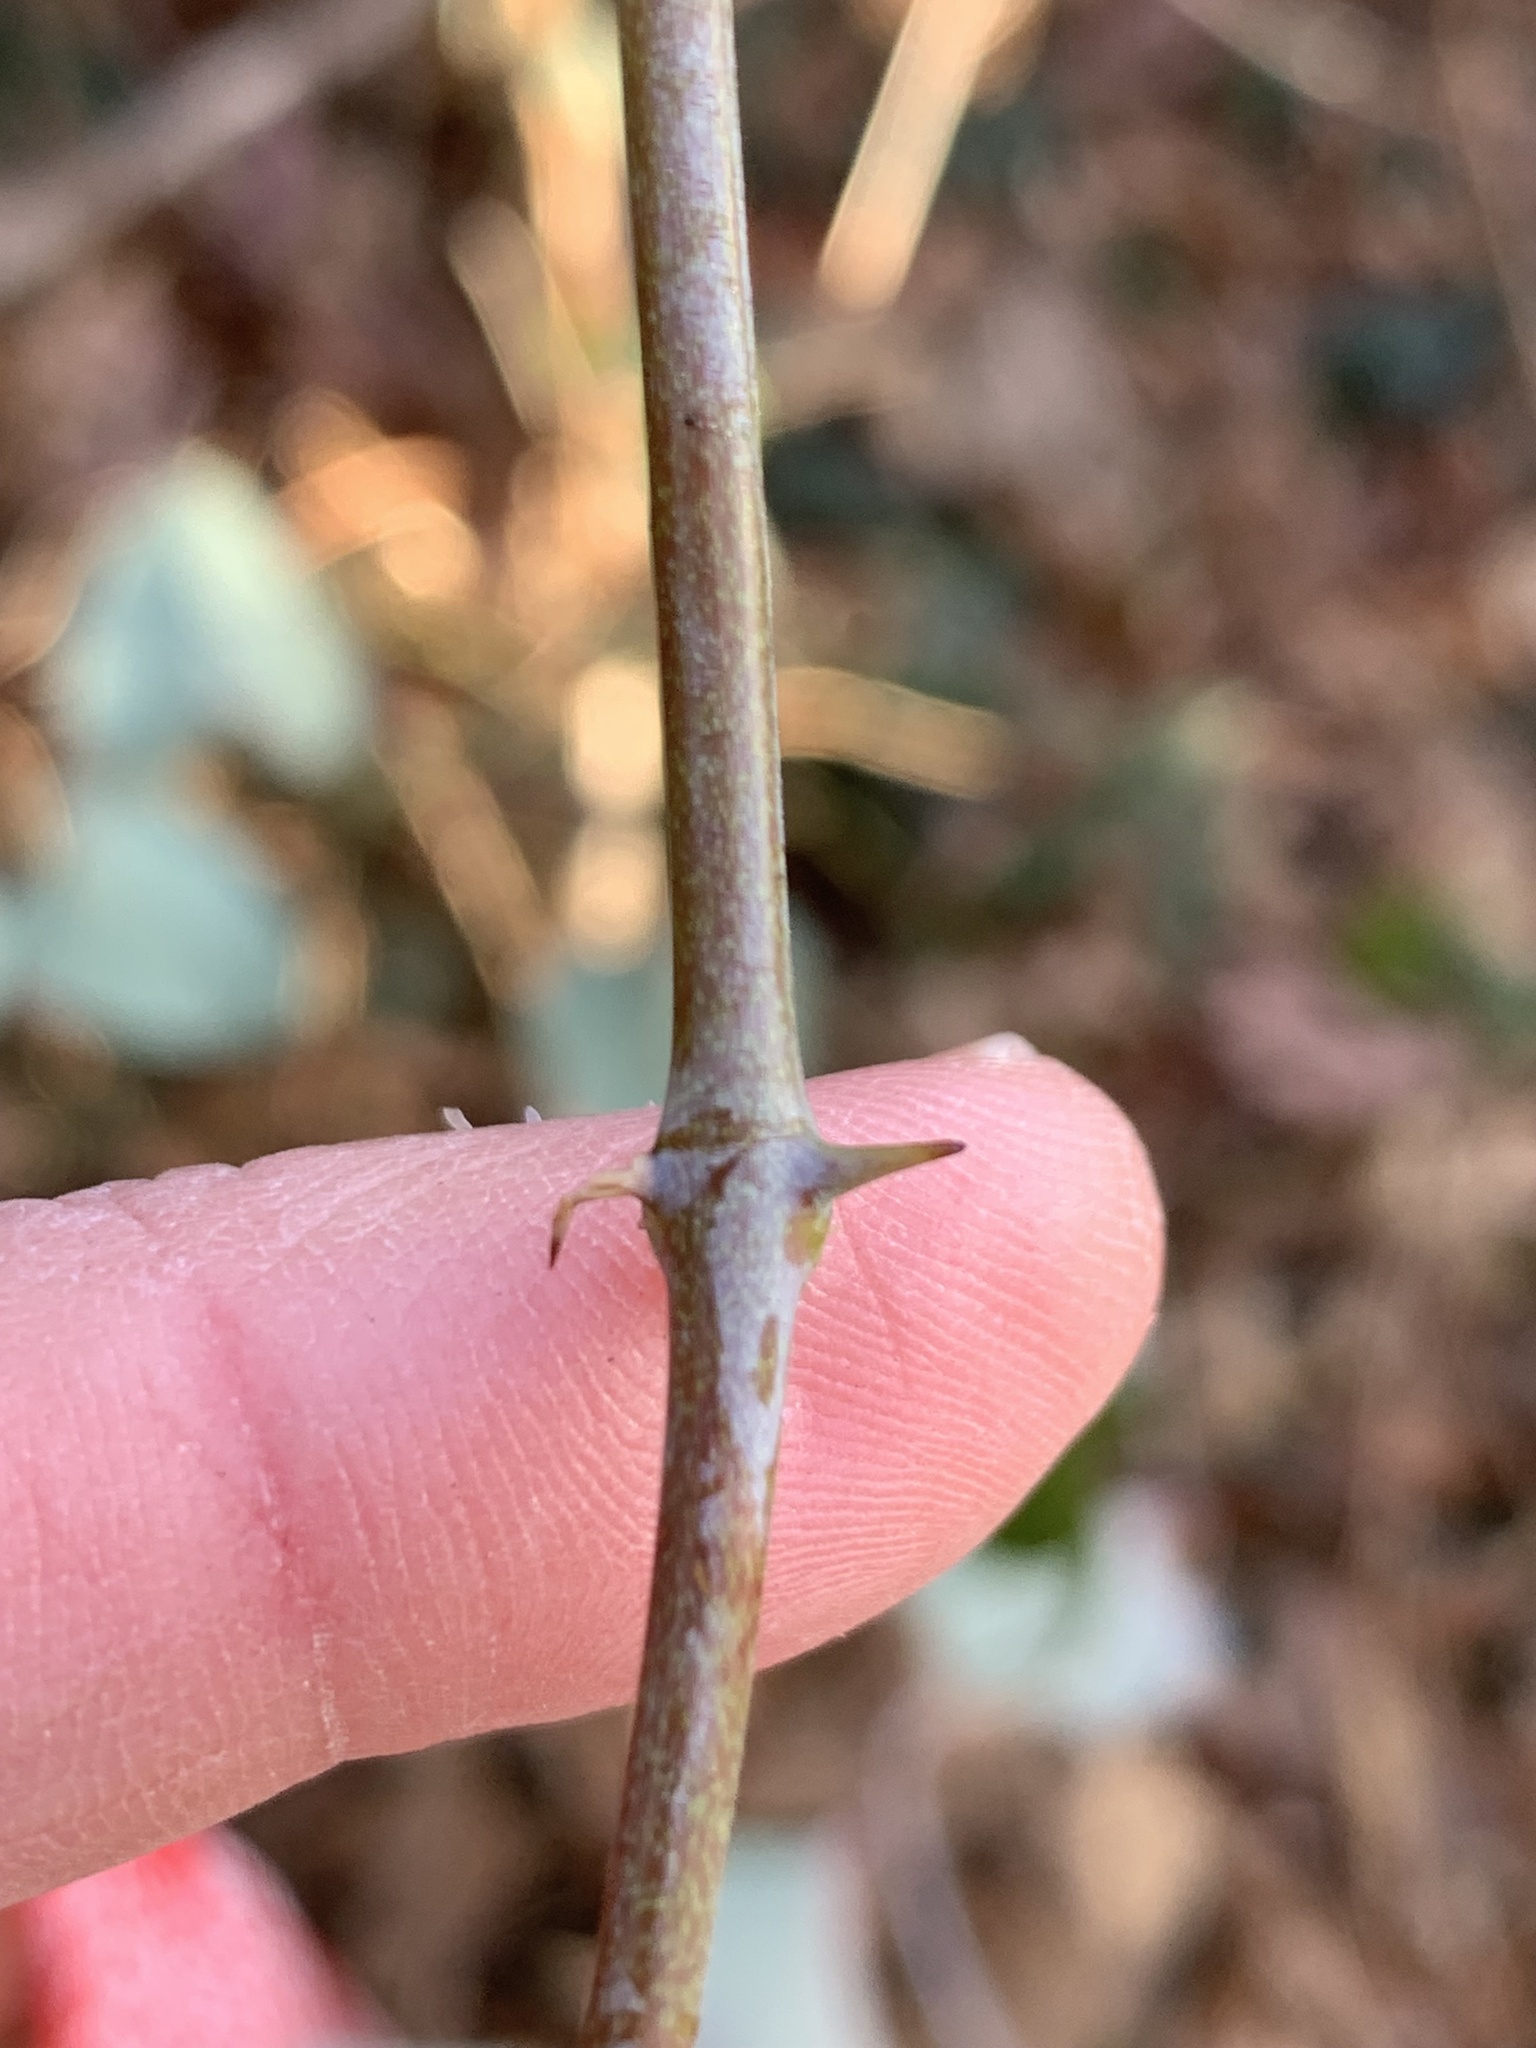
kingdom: Plantae
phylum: Tracheophyta
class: Liliopsida
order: Liliales
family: Smilacaceae
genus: Smilax
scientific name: Smilax glauca
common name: Cat greenbrier
